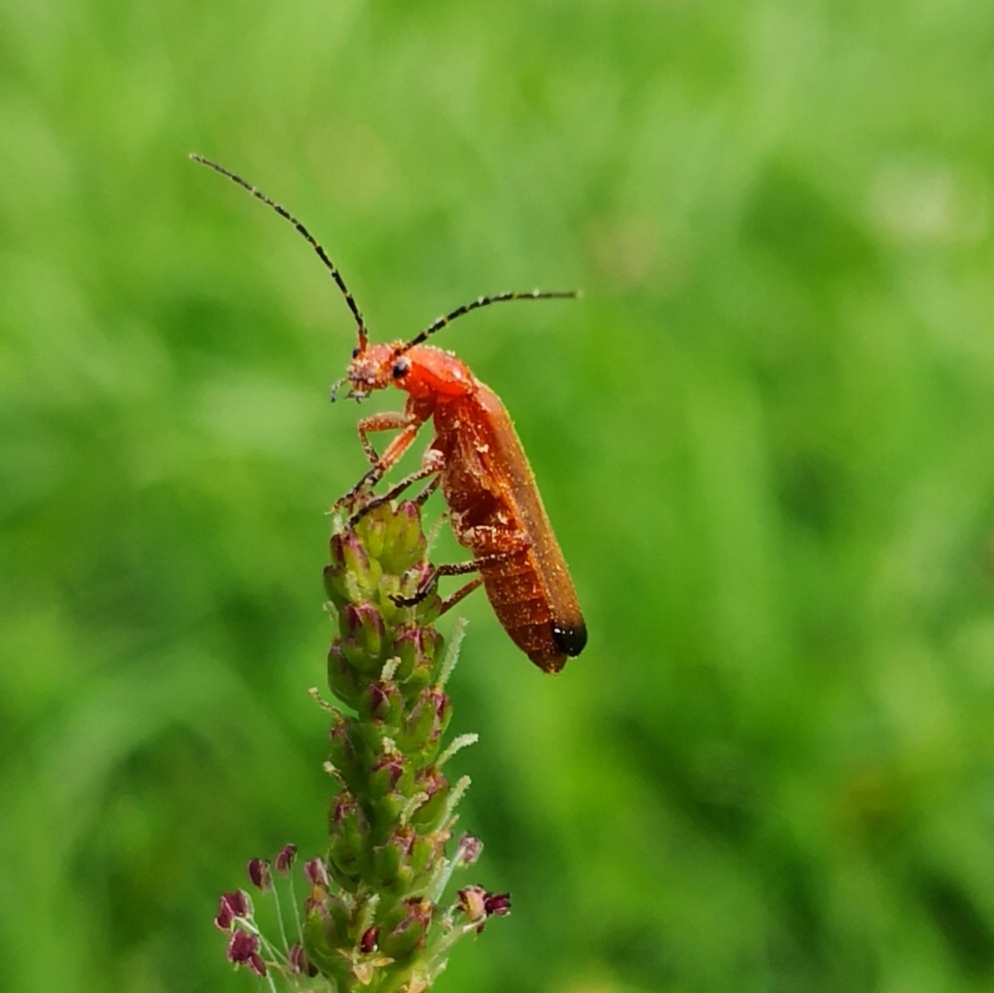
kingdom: Animalia
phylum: Arthropoda
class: Insecta
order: Coleoptera
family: Cantharidae
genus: Rhagonycha
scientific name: Rhagonycha fulva
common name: Common red soldier beetle
